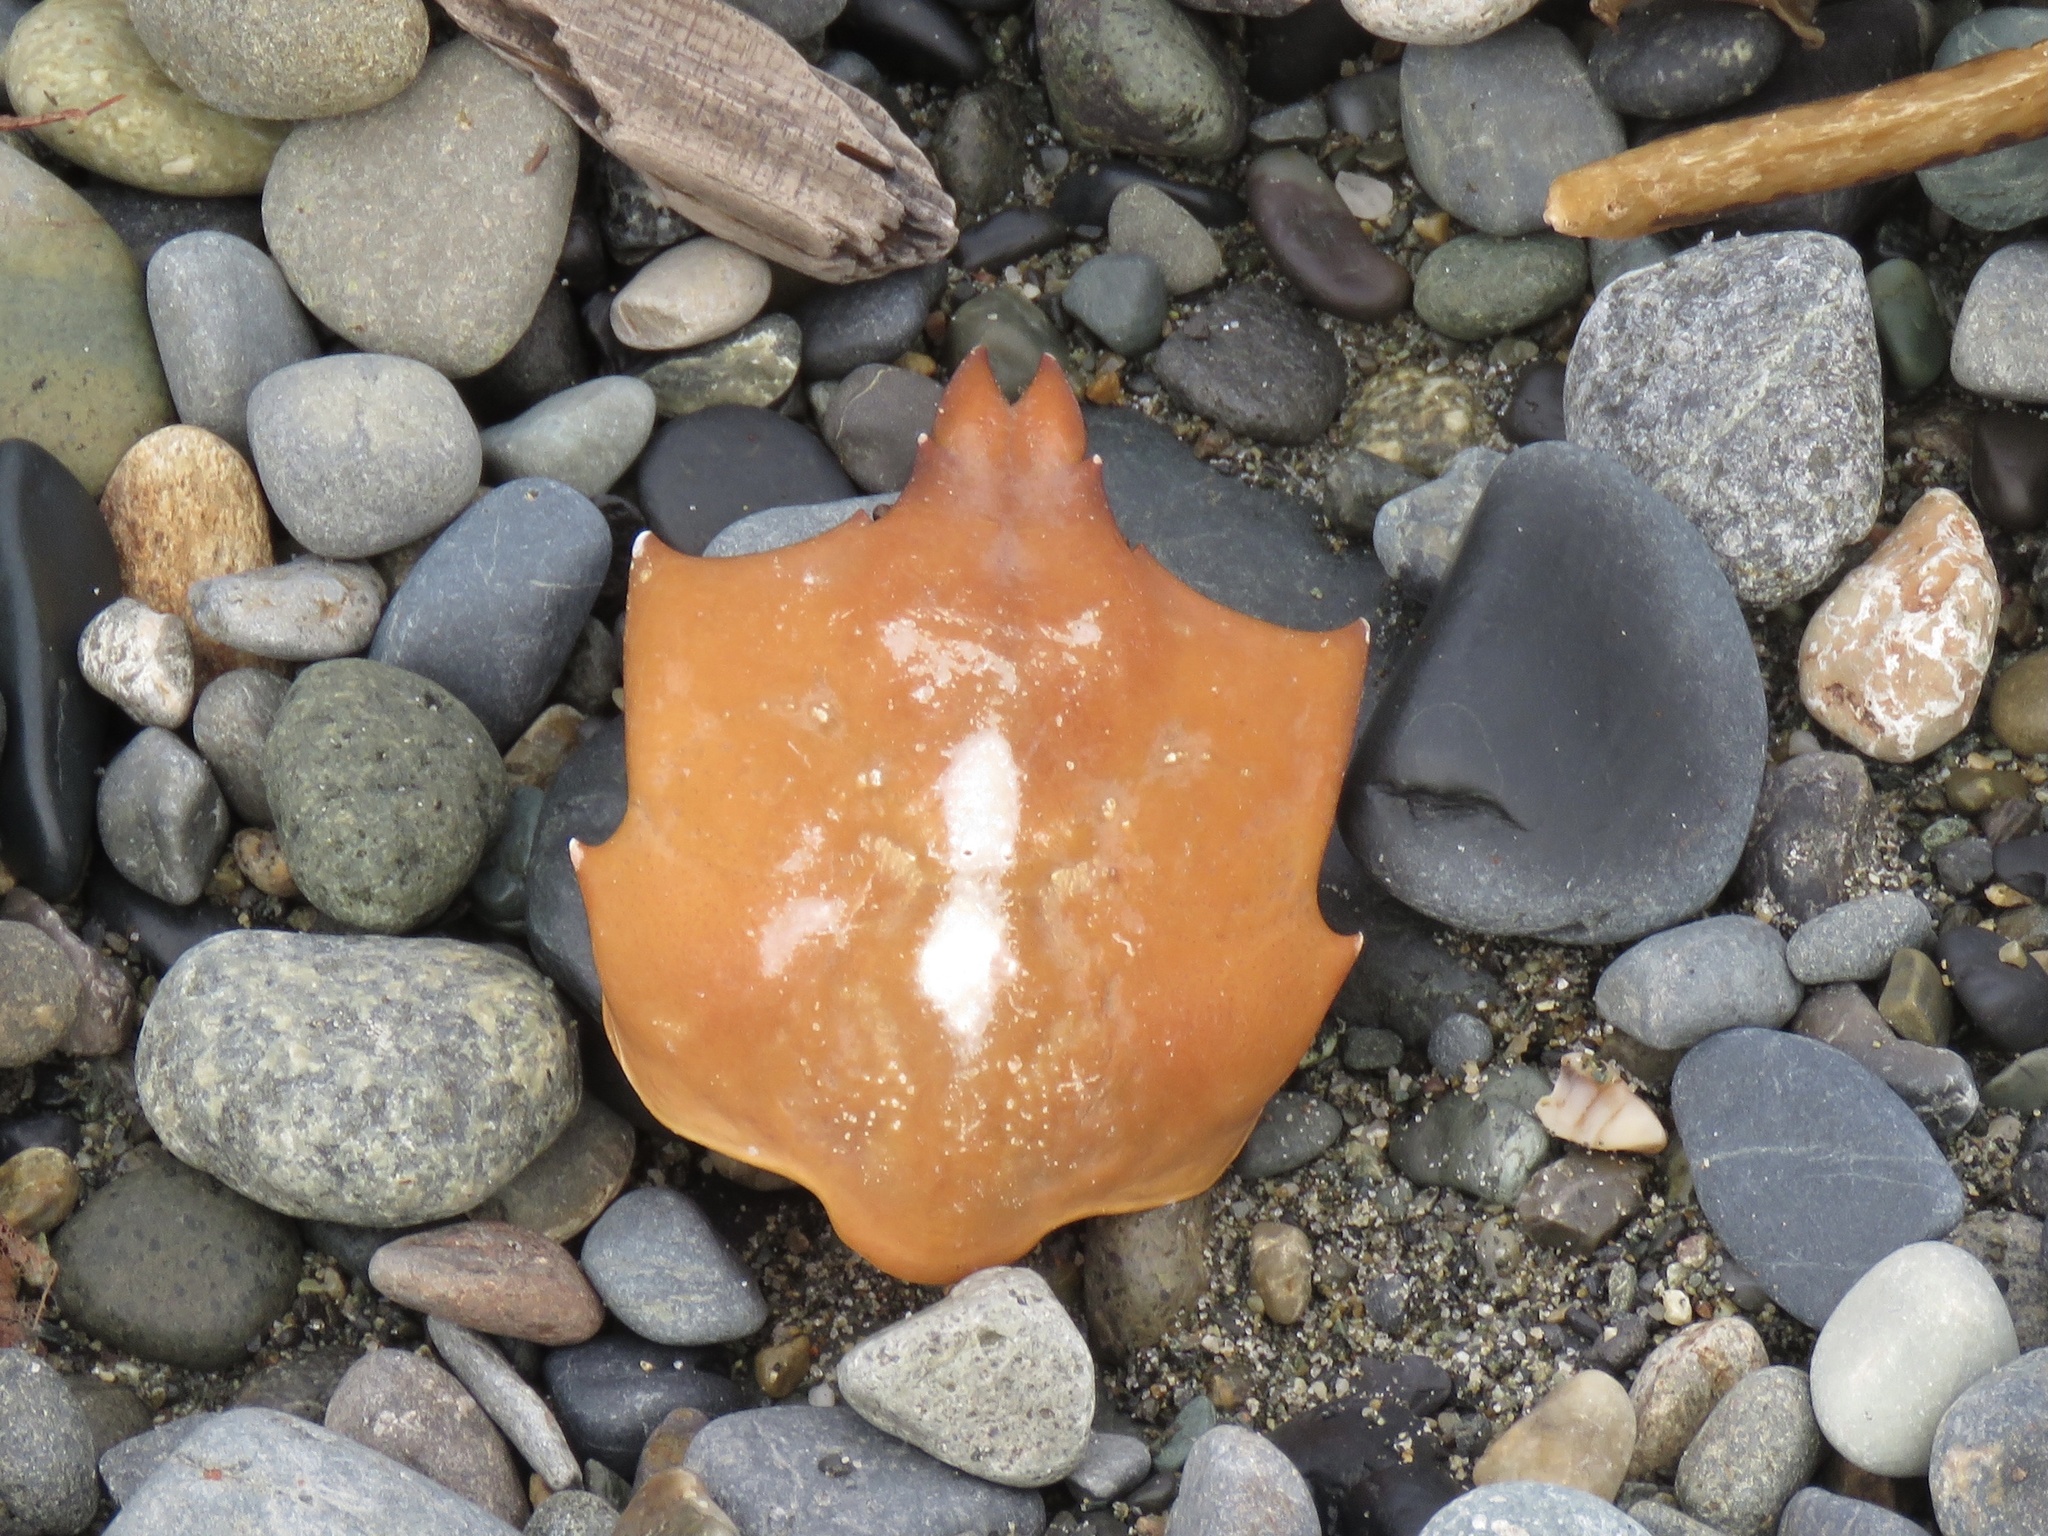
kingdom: Animalia
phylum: Arthropoda
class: Malacostraca
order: Decapoda
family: Epialtidae
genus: Pugettia
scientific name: Pugettia producta
